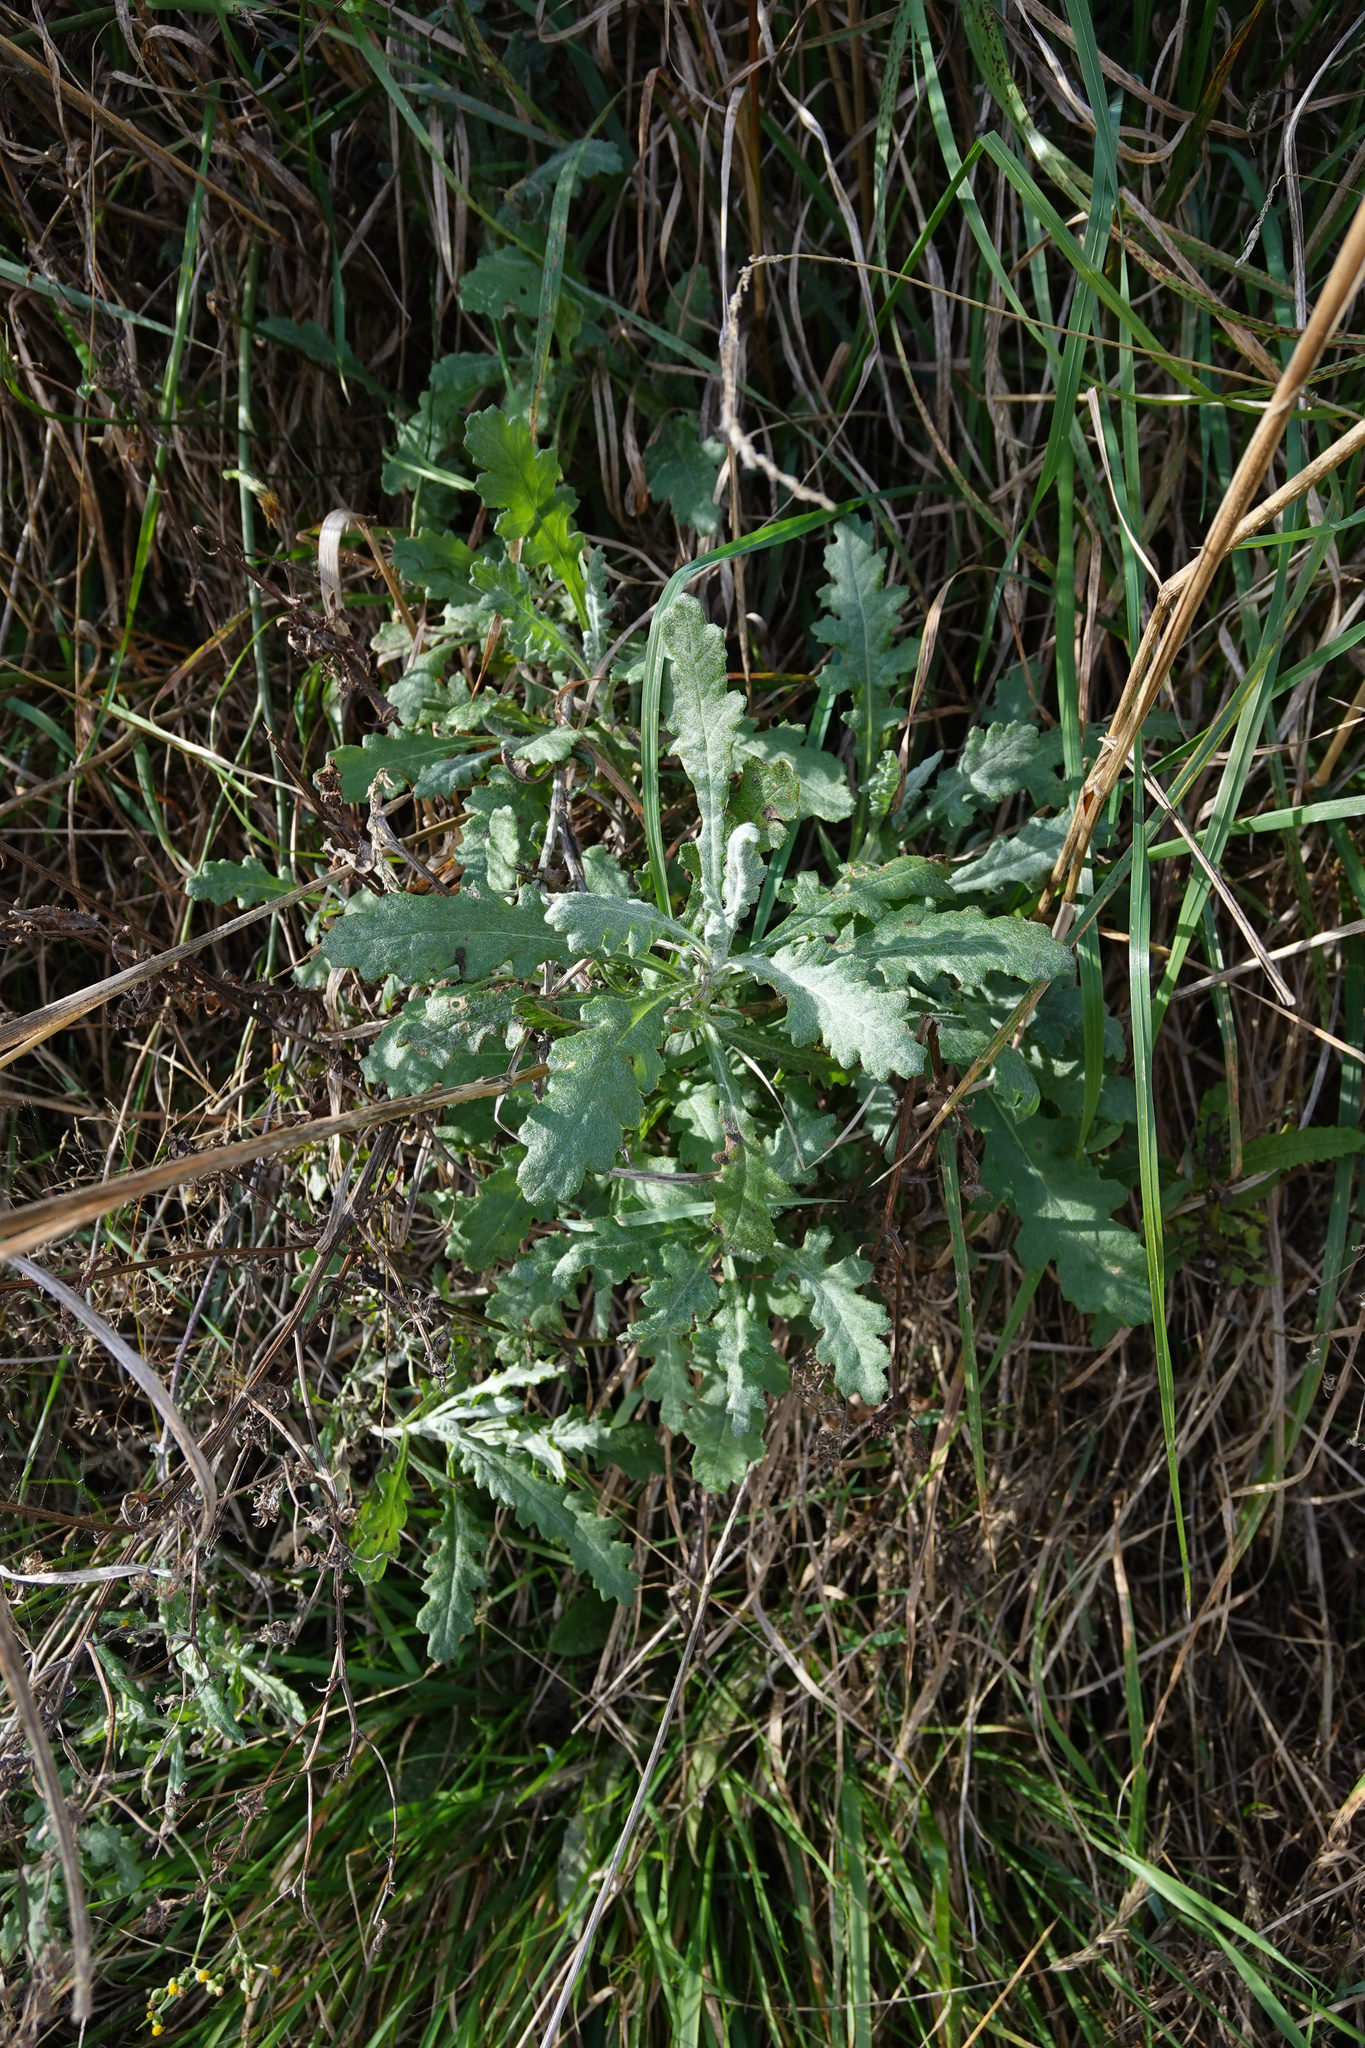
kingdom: Plantae
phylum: Tracheophyta
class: Magnoliopsida
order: Asterales
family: Asteraceae
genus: Senecio
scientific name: Senecio glomeratus
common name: Cutleaf burnweed
